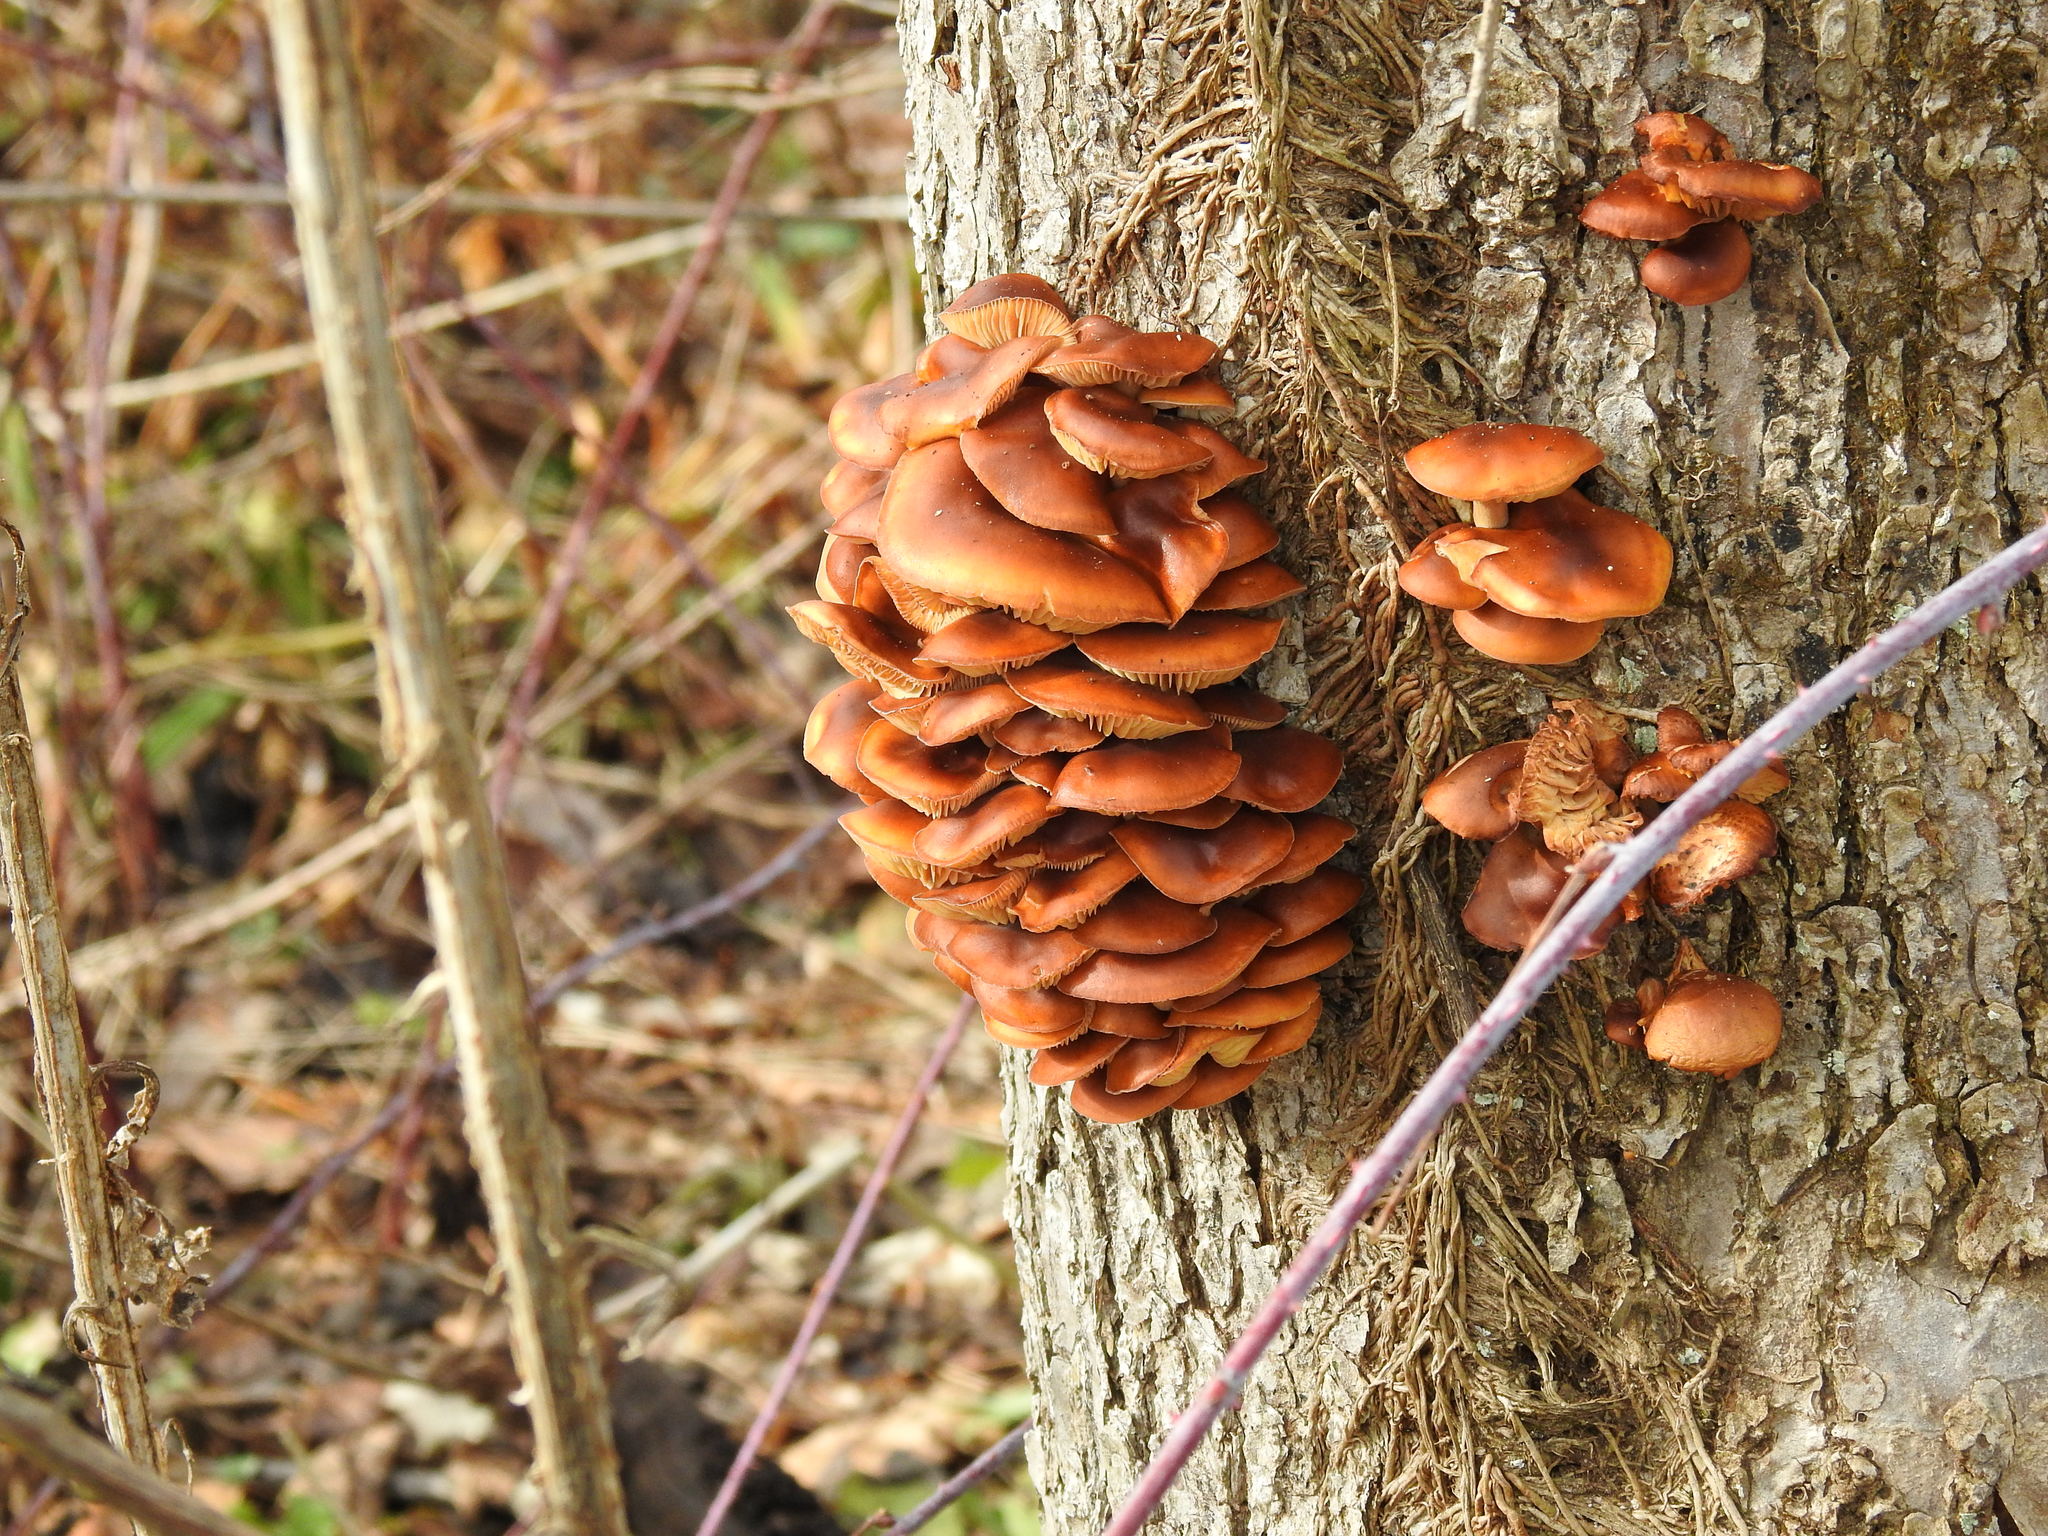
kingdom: Fungi
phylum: Basidiomycota
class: Agaricomycetes
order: Agaricales
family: Physalacriaceae
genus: Flammulina
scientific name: Flammulina velutipes
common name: Velvet shank
